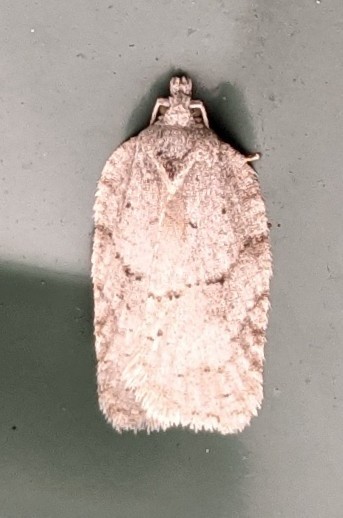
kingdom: Animalia
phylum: Arthropoda
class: Insecta
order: Lepidoptera
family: Tortricidae
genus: Acleris
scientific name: Acleris placidana
